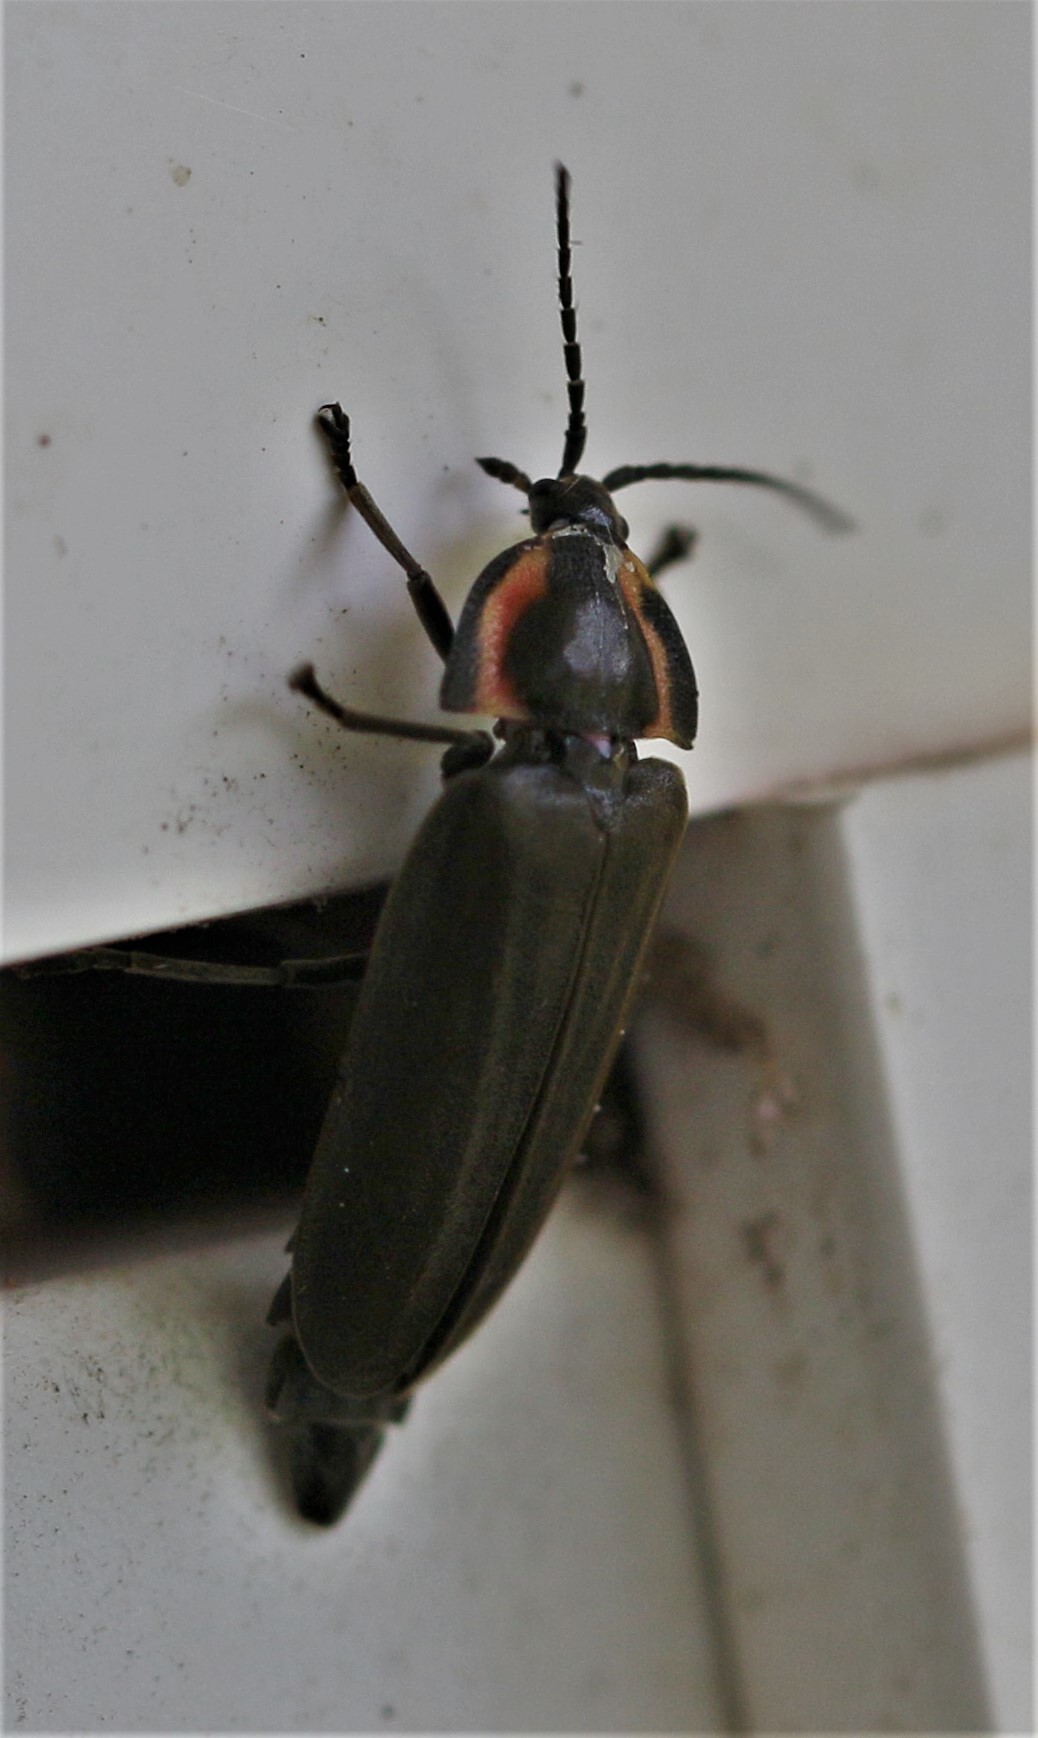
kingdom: Animalia
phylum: Arthropoda
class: Insecta
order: Coleoptera
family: Lampyridae
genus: Photinus
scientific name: Photinus corrusca
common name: Winter firefly
